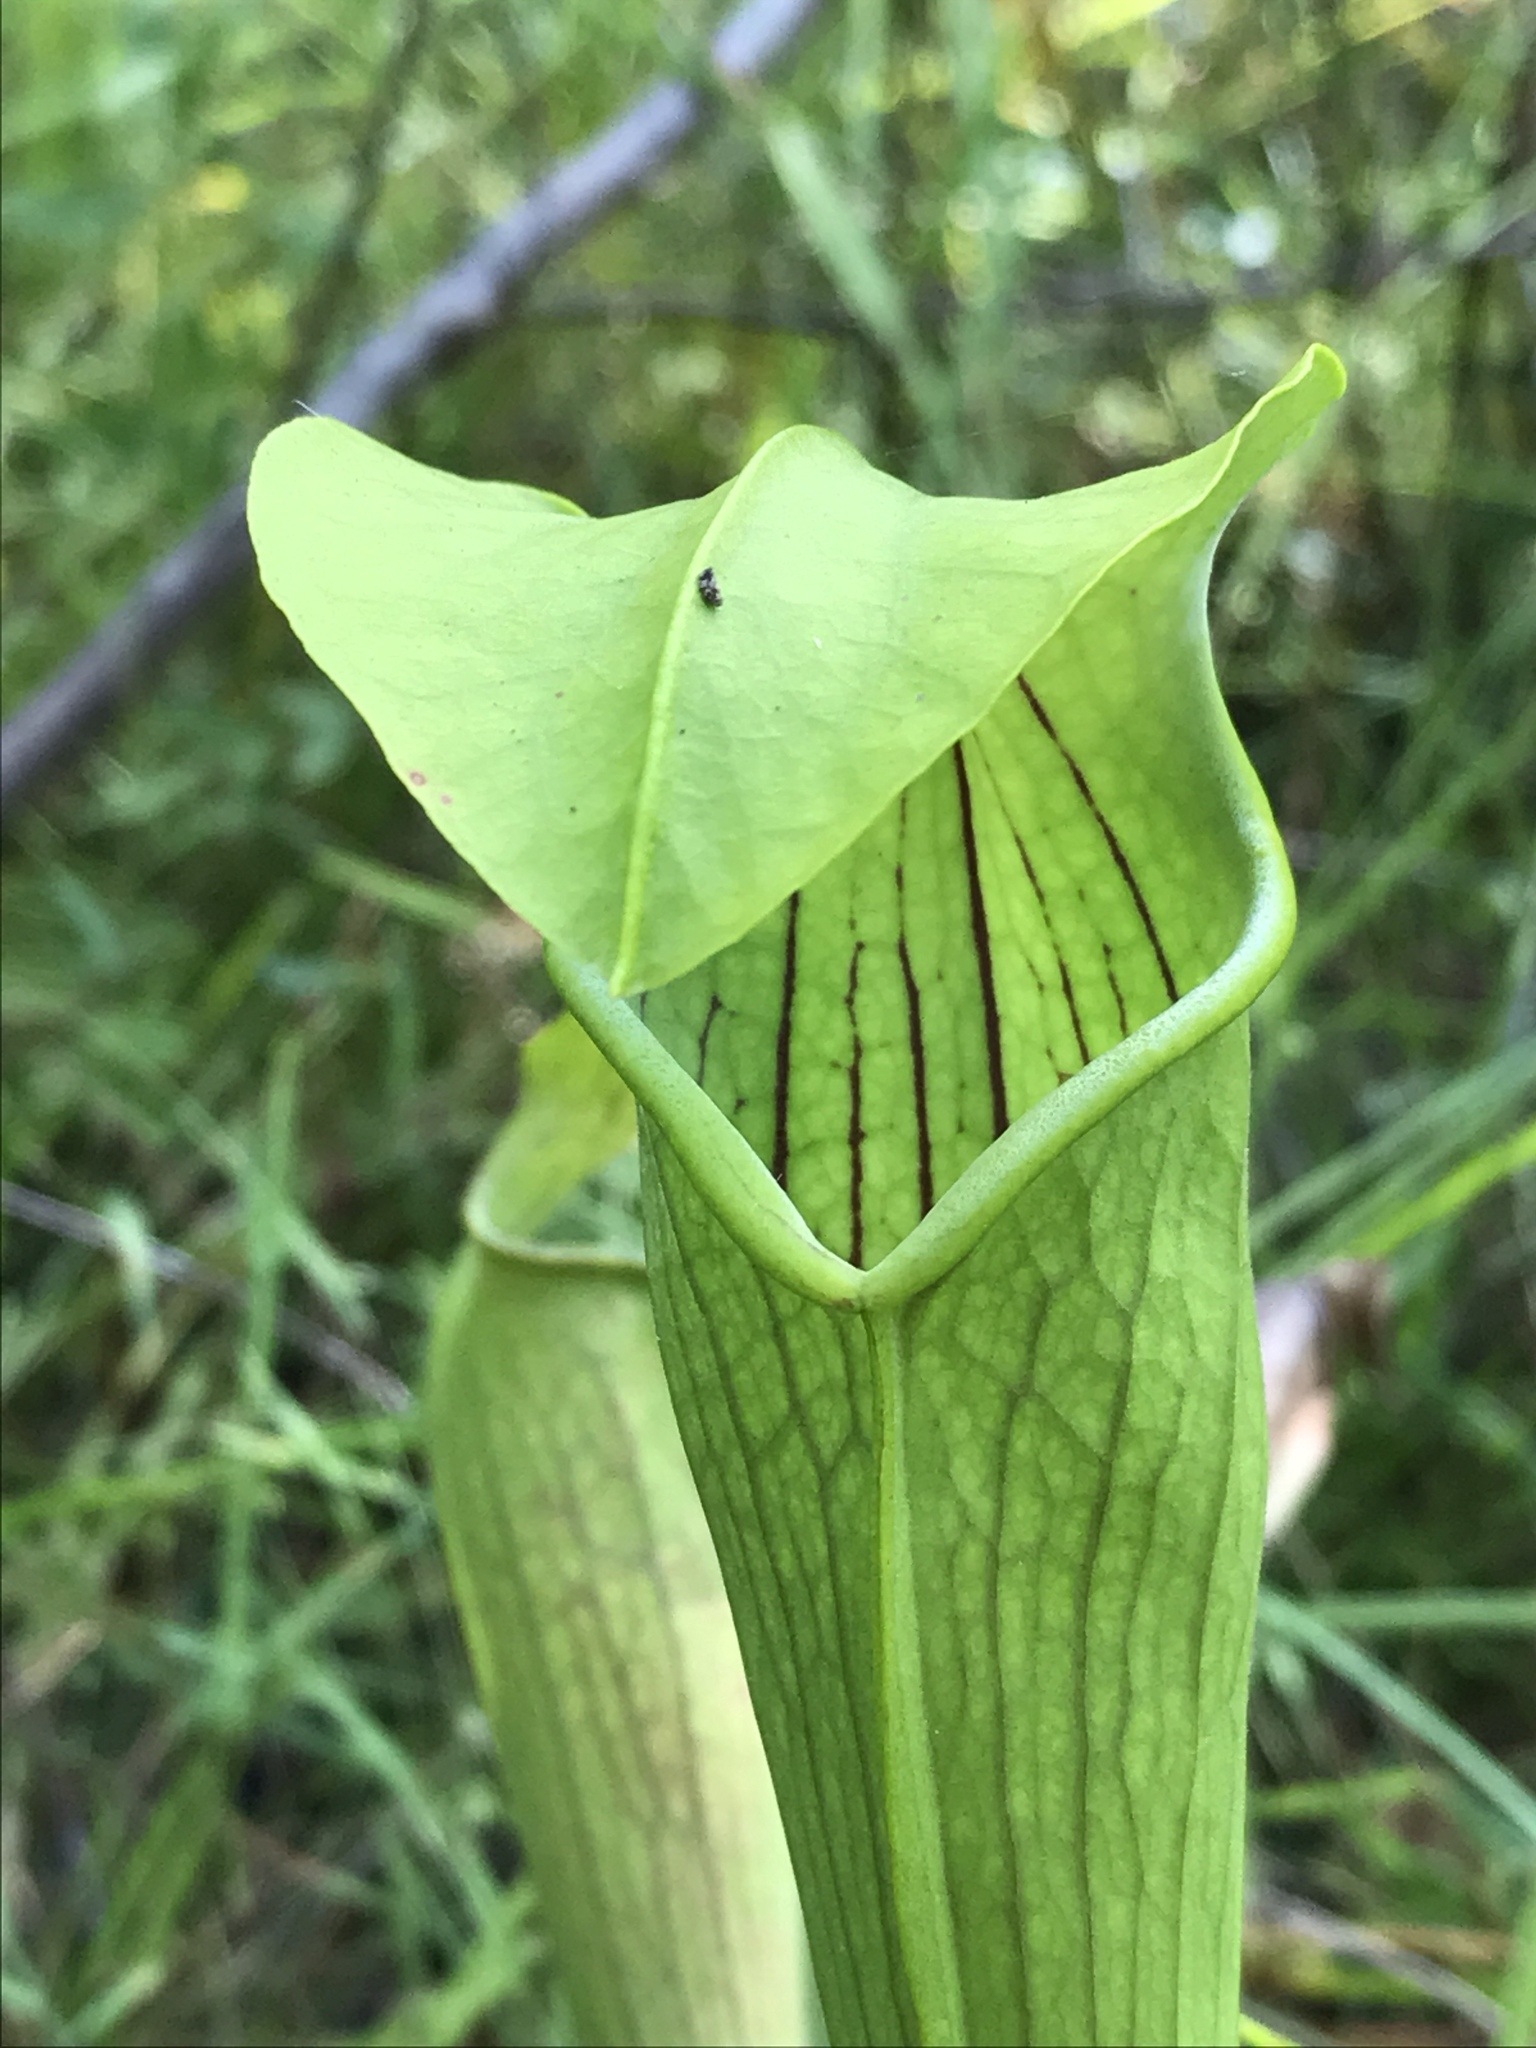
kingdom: Plantae
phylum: Tracheophyta
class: Magnoliopsida
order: Ericales
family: Sarraceniaceae
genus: Sarracenia
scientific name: Sarracenia alata
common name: Yellow trumpets
